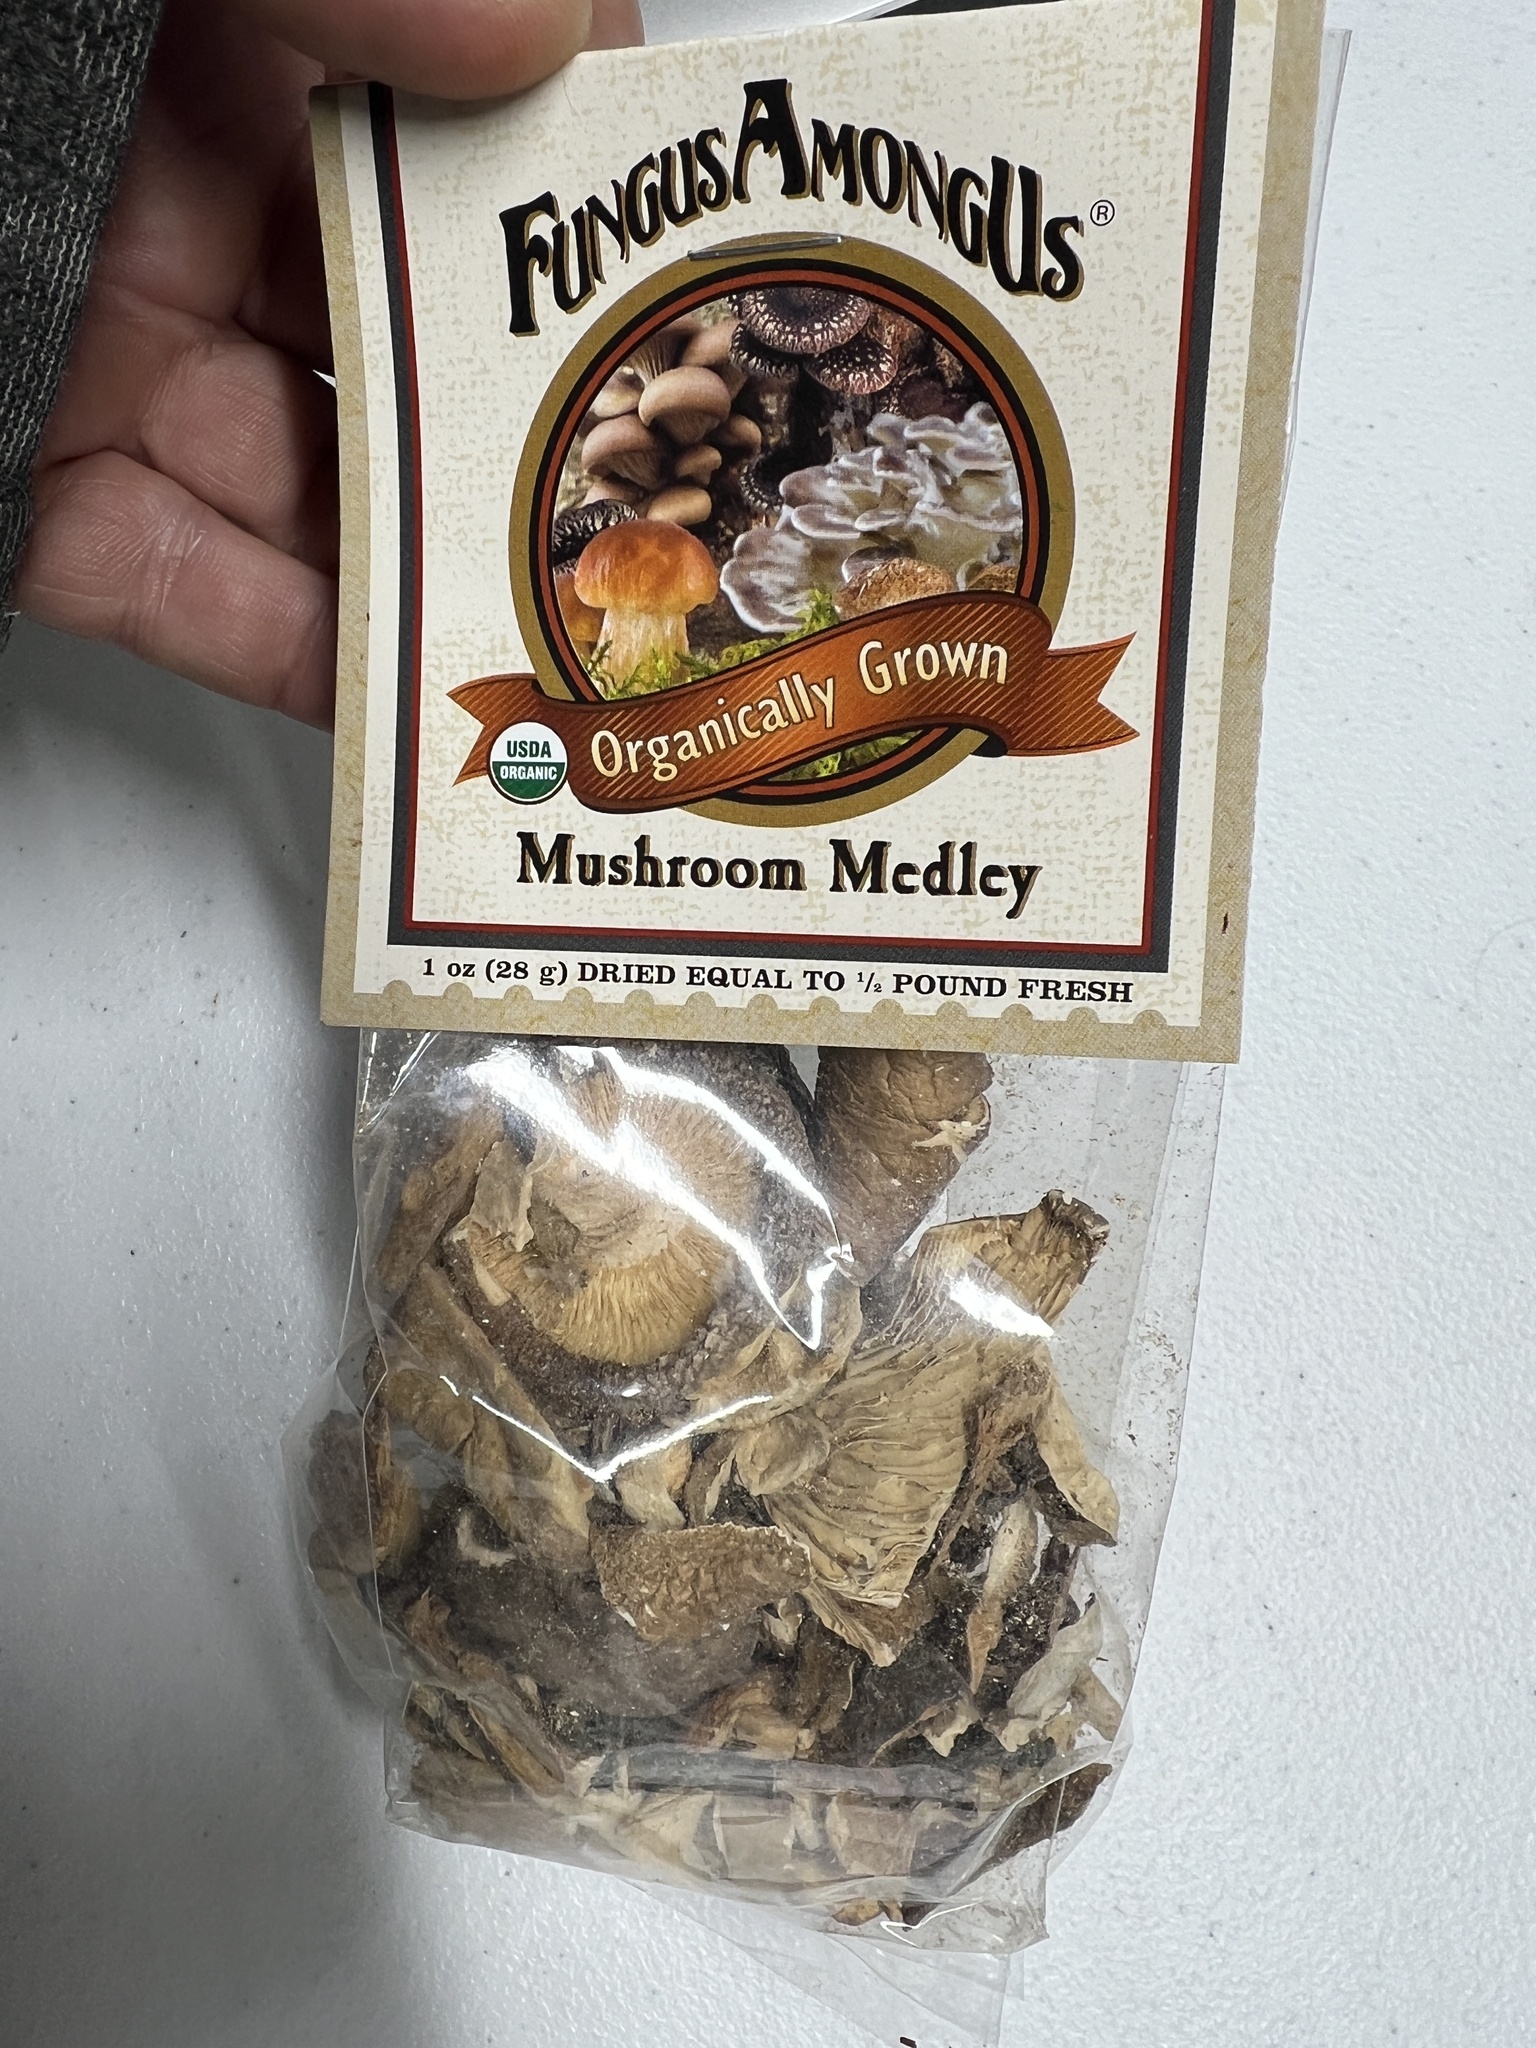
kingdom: Fungi
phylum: Basidiomycota
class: Agaricomycetes
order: Agaricales
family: Pleurotaceae
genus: Pleurotus
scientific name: Pleurotus ostreatus
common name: Oyster mushroom
